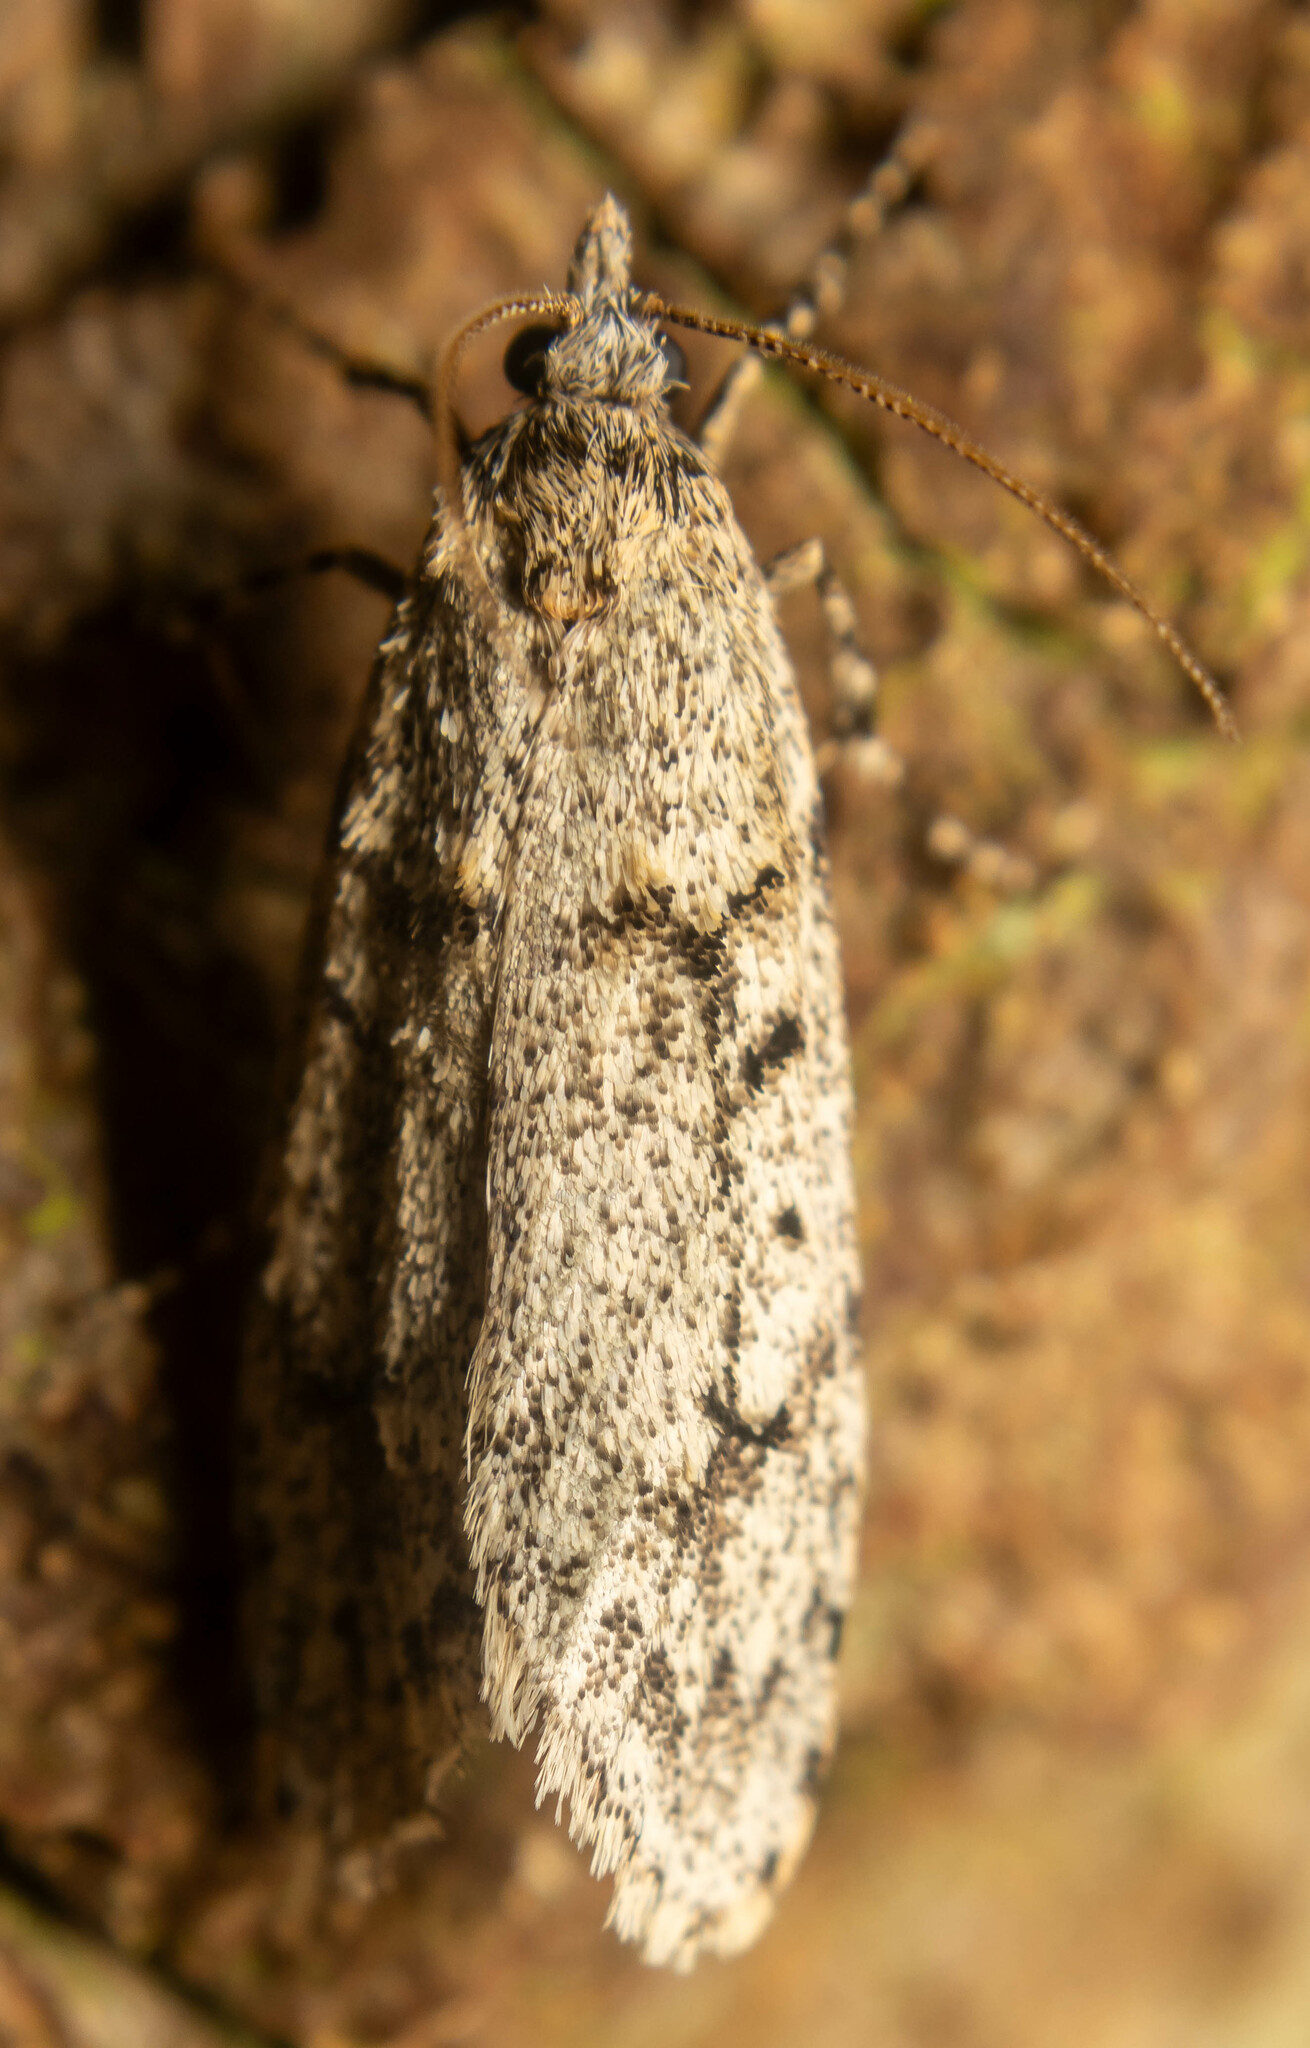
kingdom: Animalia
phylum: Arthropoda
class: Insecta
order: Lepidoptera
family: Lypusidae
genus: Diurnea
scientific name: Diurnea fagella
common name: March tubic
